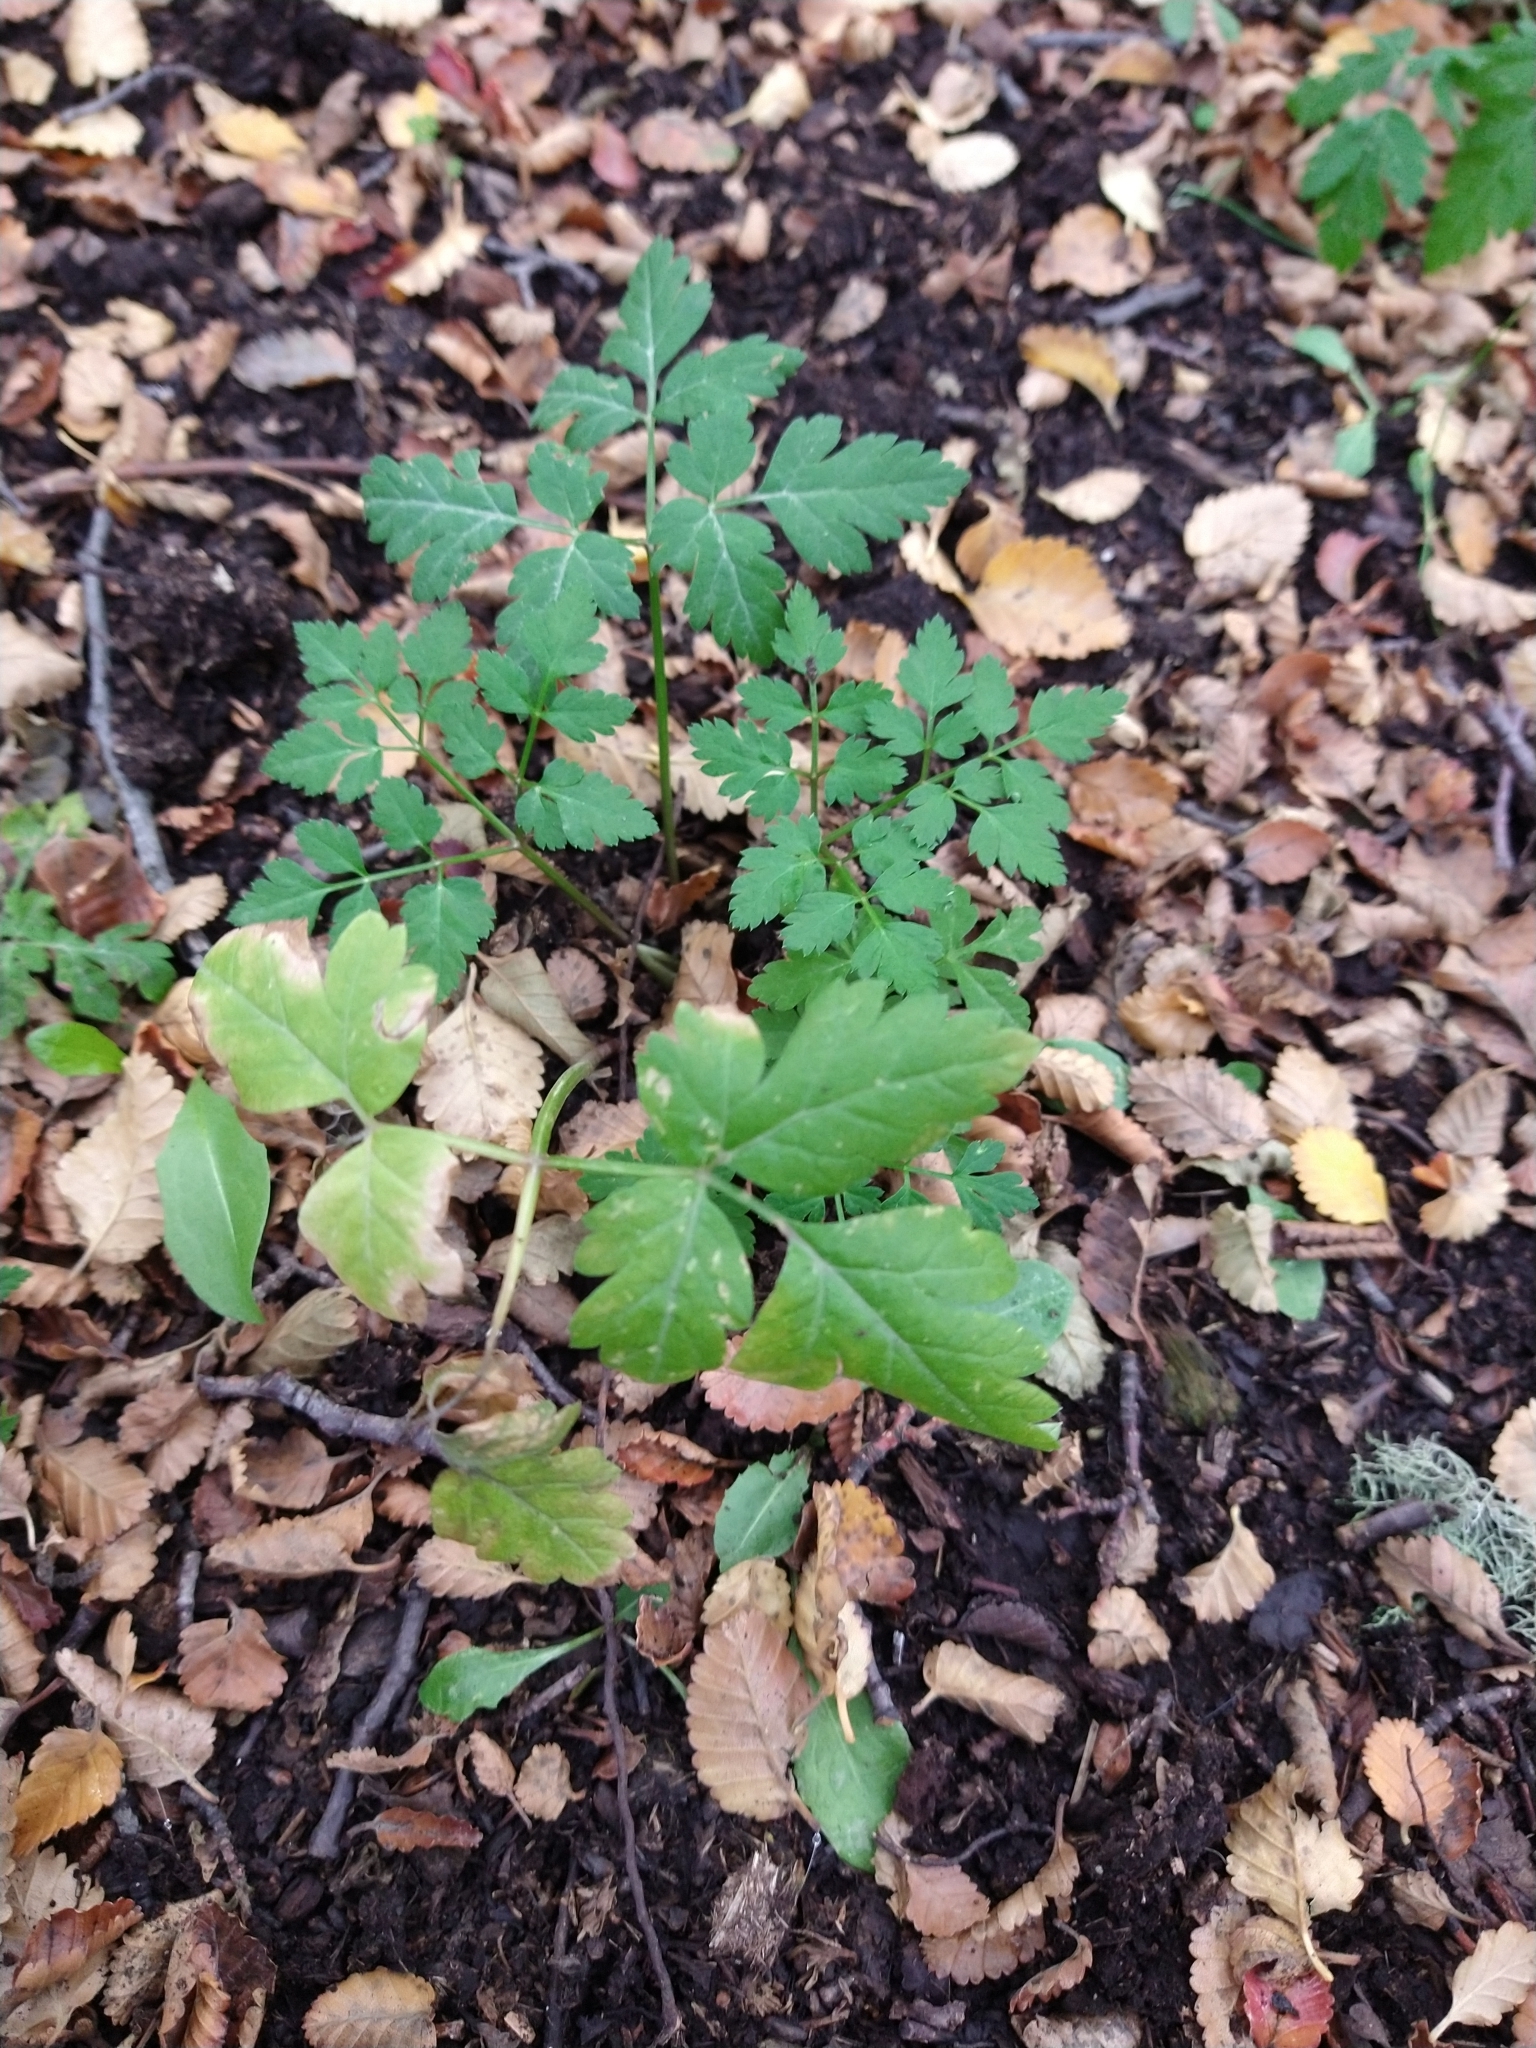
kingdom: Plantae
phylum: Tracheophyta
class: Magnoliopsida
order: Apiales
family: Apiaceae
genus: Osmorhiza
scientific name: Osmorhiza berteroi
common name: Mountain sweet cicely
